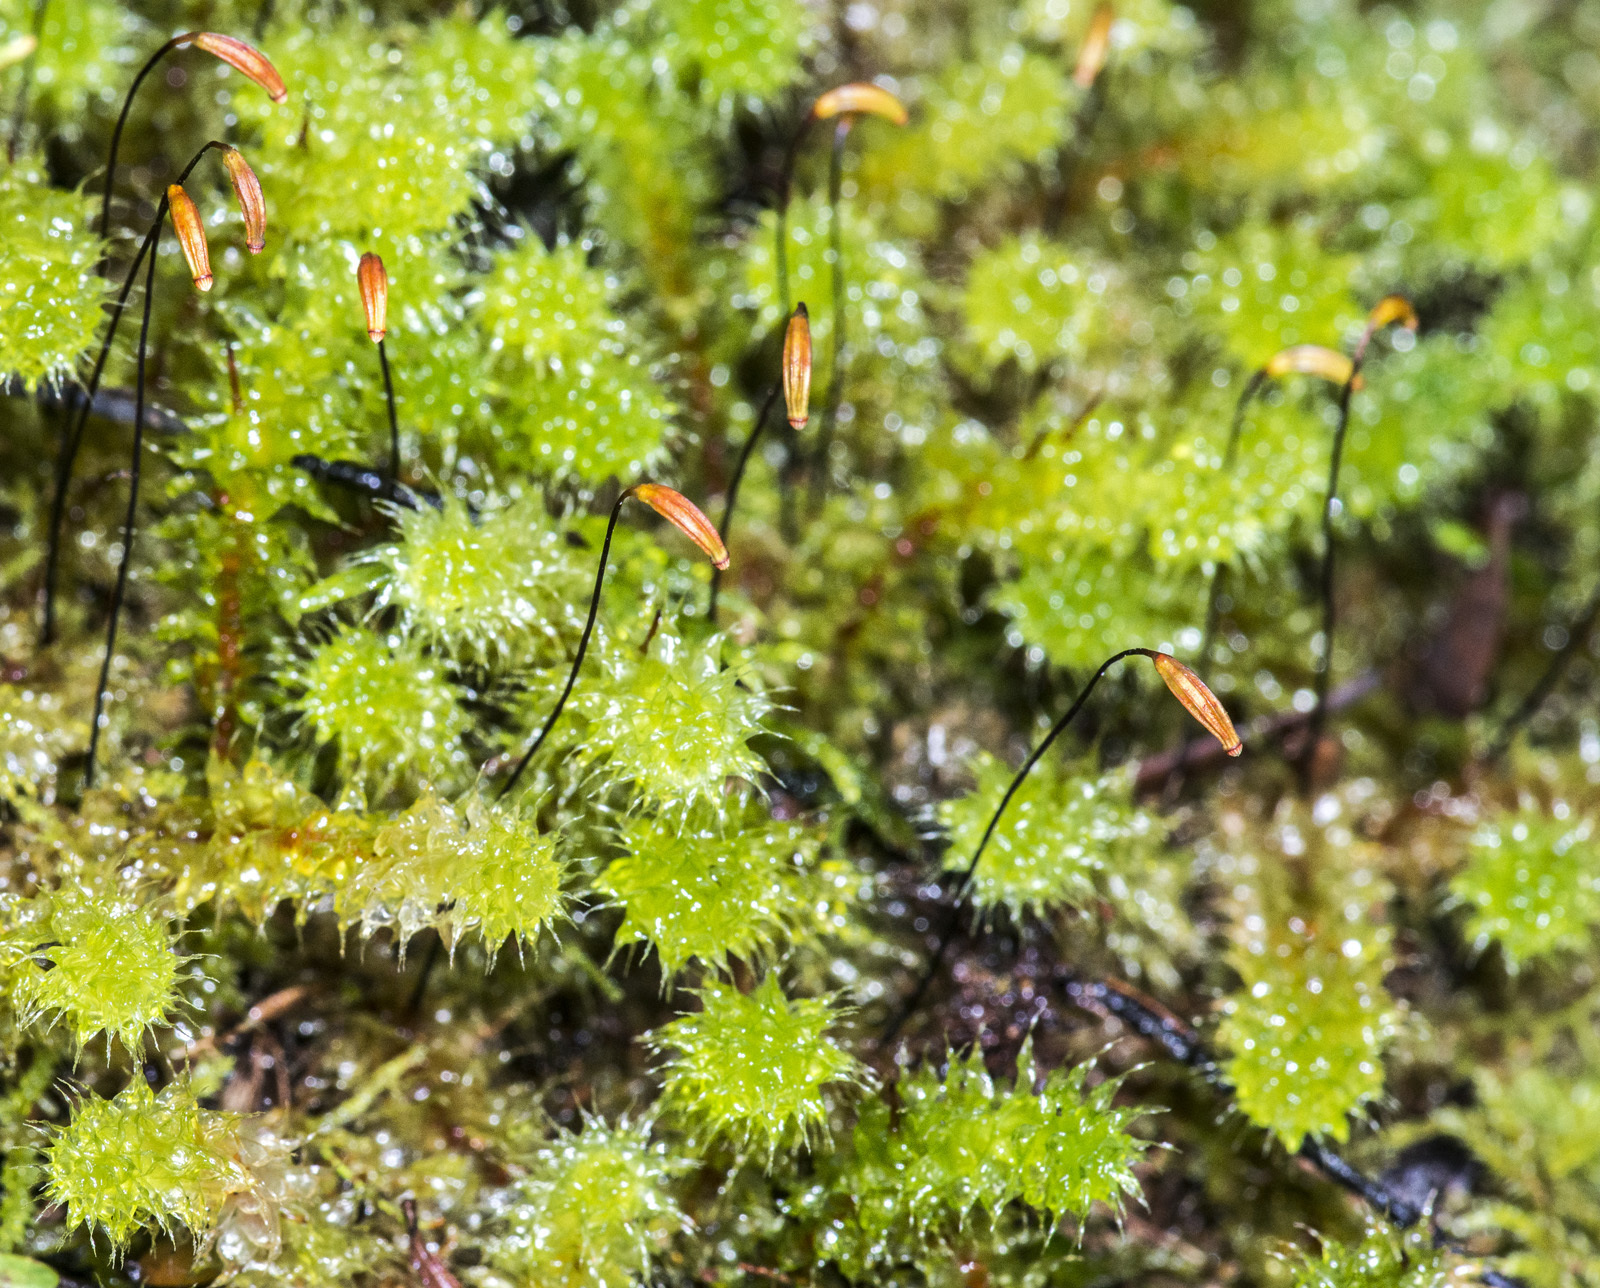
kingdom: Plantae
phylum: Bryophyta
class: Bryopsida
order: Ptychomniales
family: Ptychomniaceae
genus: Ptychomnion
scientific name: Ptychomnion aciculare
